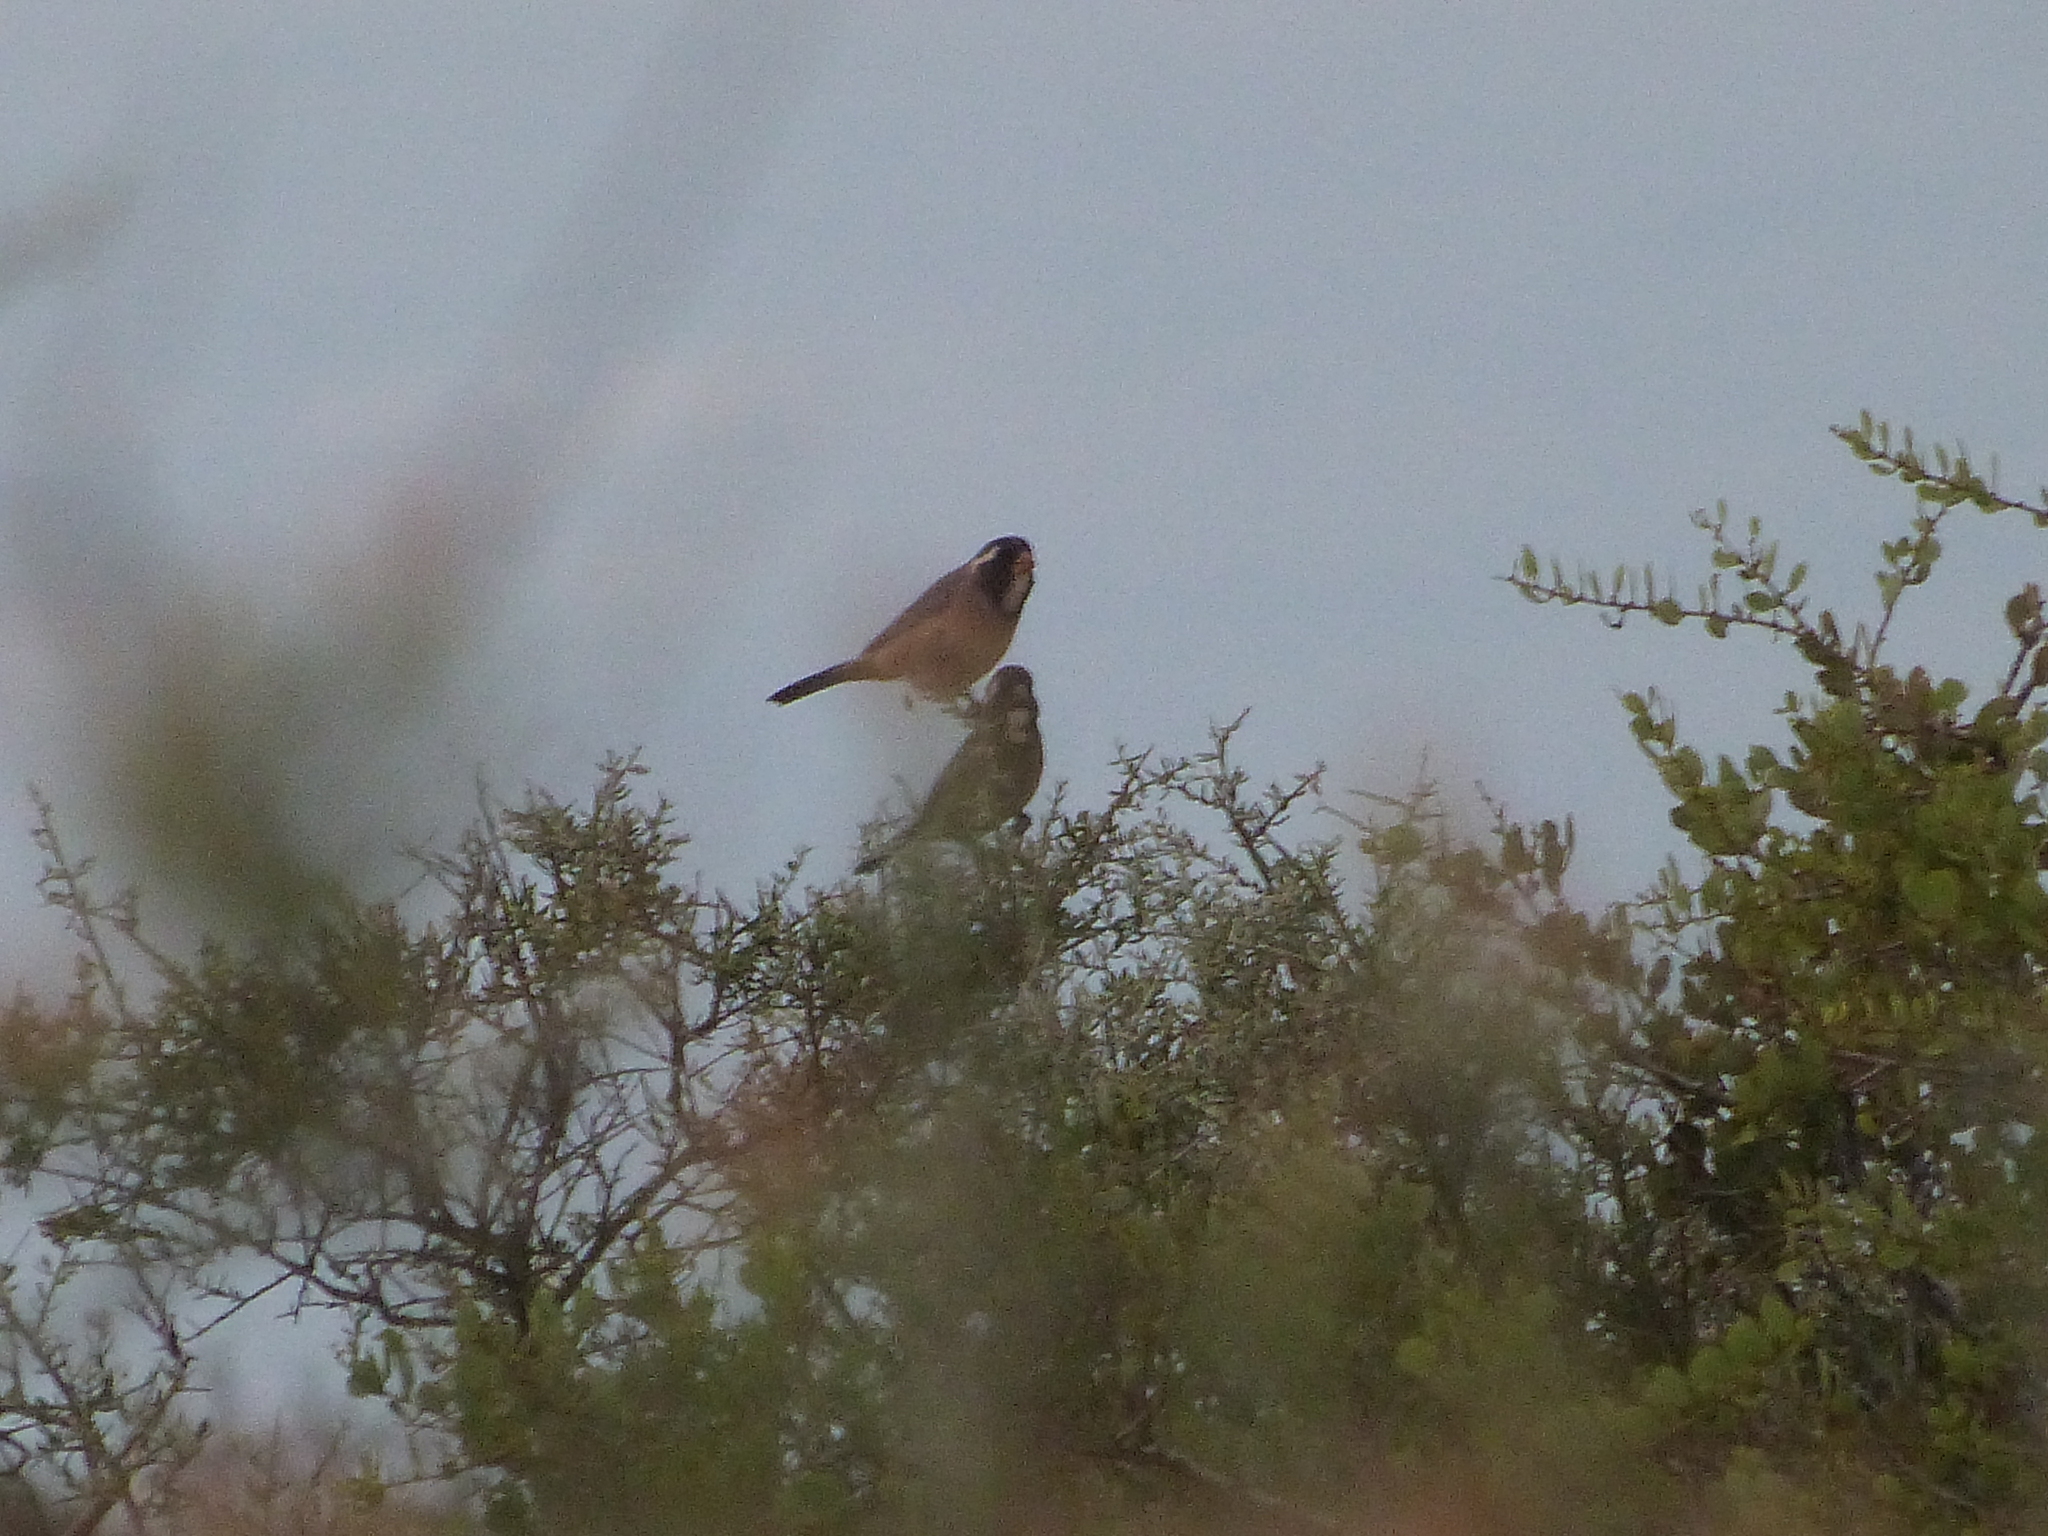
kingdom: Animalia
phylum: Chordata
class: Aves
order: Passeriformes
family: Thraupidae
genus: Saltator
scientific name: Saltator aurantiirostris
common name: Golden-billed saltator
